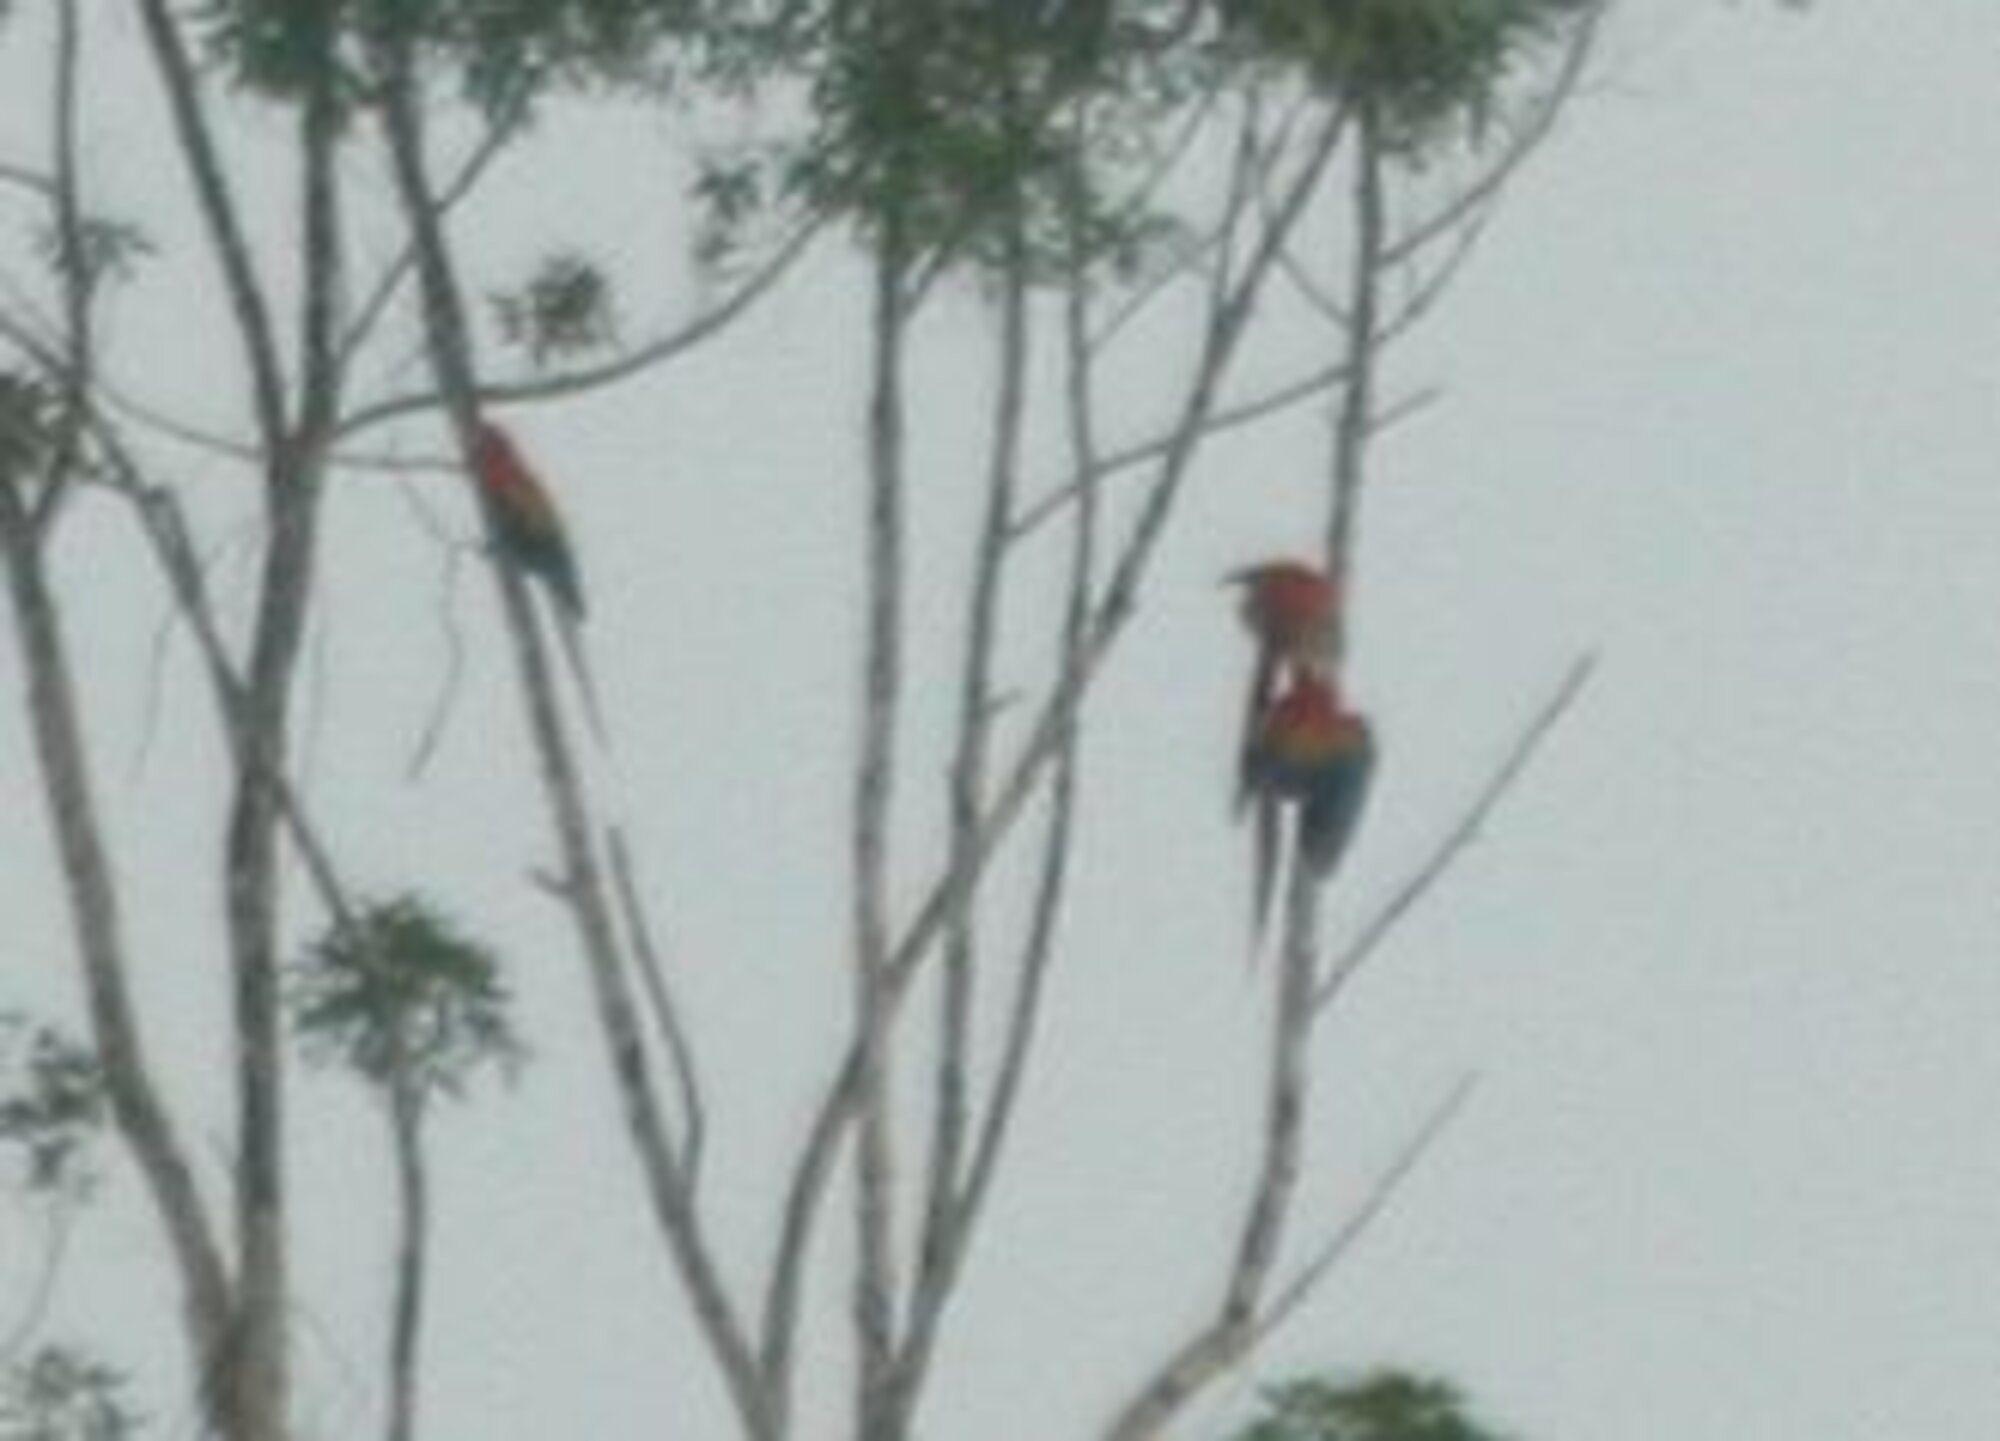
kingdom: Animalia
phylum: Chordata
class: Aves
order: Psittaciformes
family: Psittacidae
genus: Ara
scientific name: Ara macao
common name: Scarlet macaw
